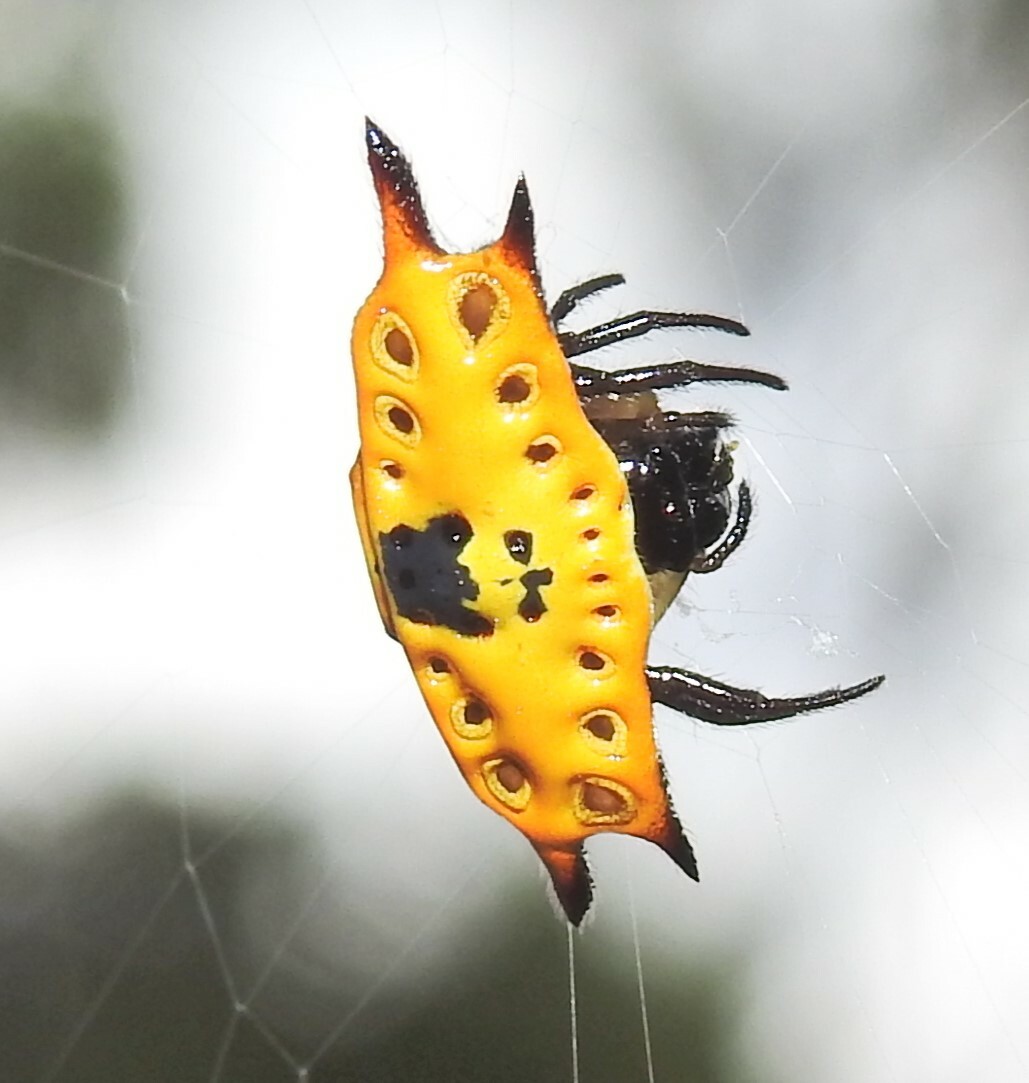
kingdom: Animalia
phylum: Arthropoda
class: Arachnida
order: Araneae
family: Araneidae
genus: Gasteracantha
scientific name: Gasteracantha quadrispinosa
